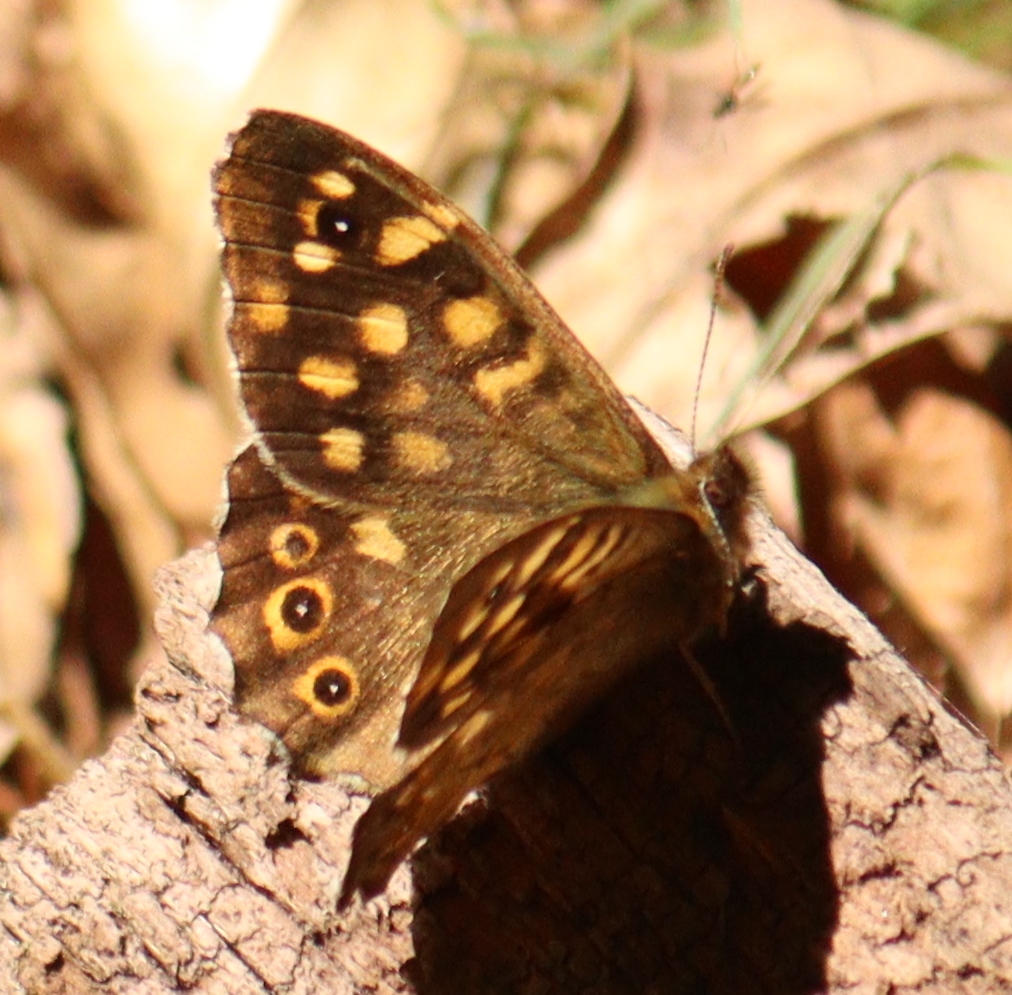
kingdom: Animalia
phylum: Arthropoda
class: Insecta
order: Lepidoptera
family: Nymphalidae
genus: Pararge
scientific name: Pararge aegeria
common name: Speckled wood
